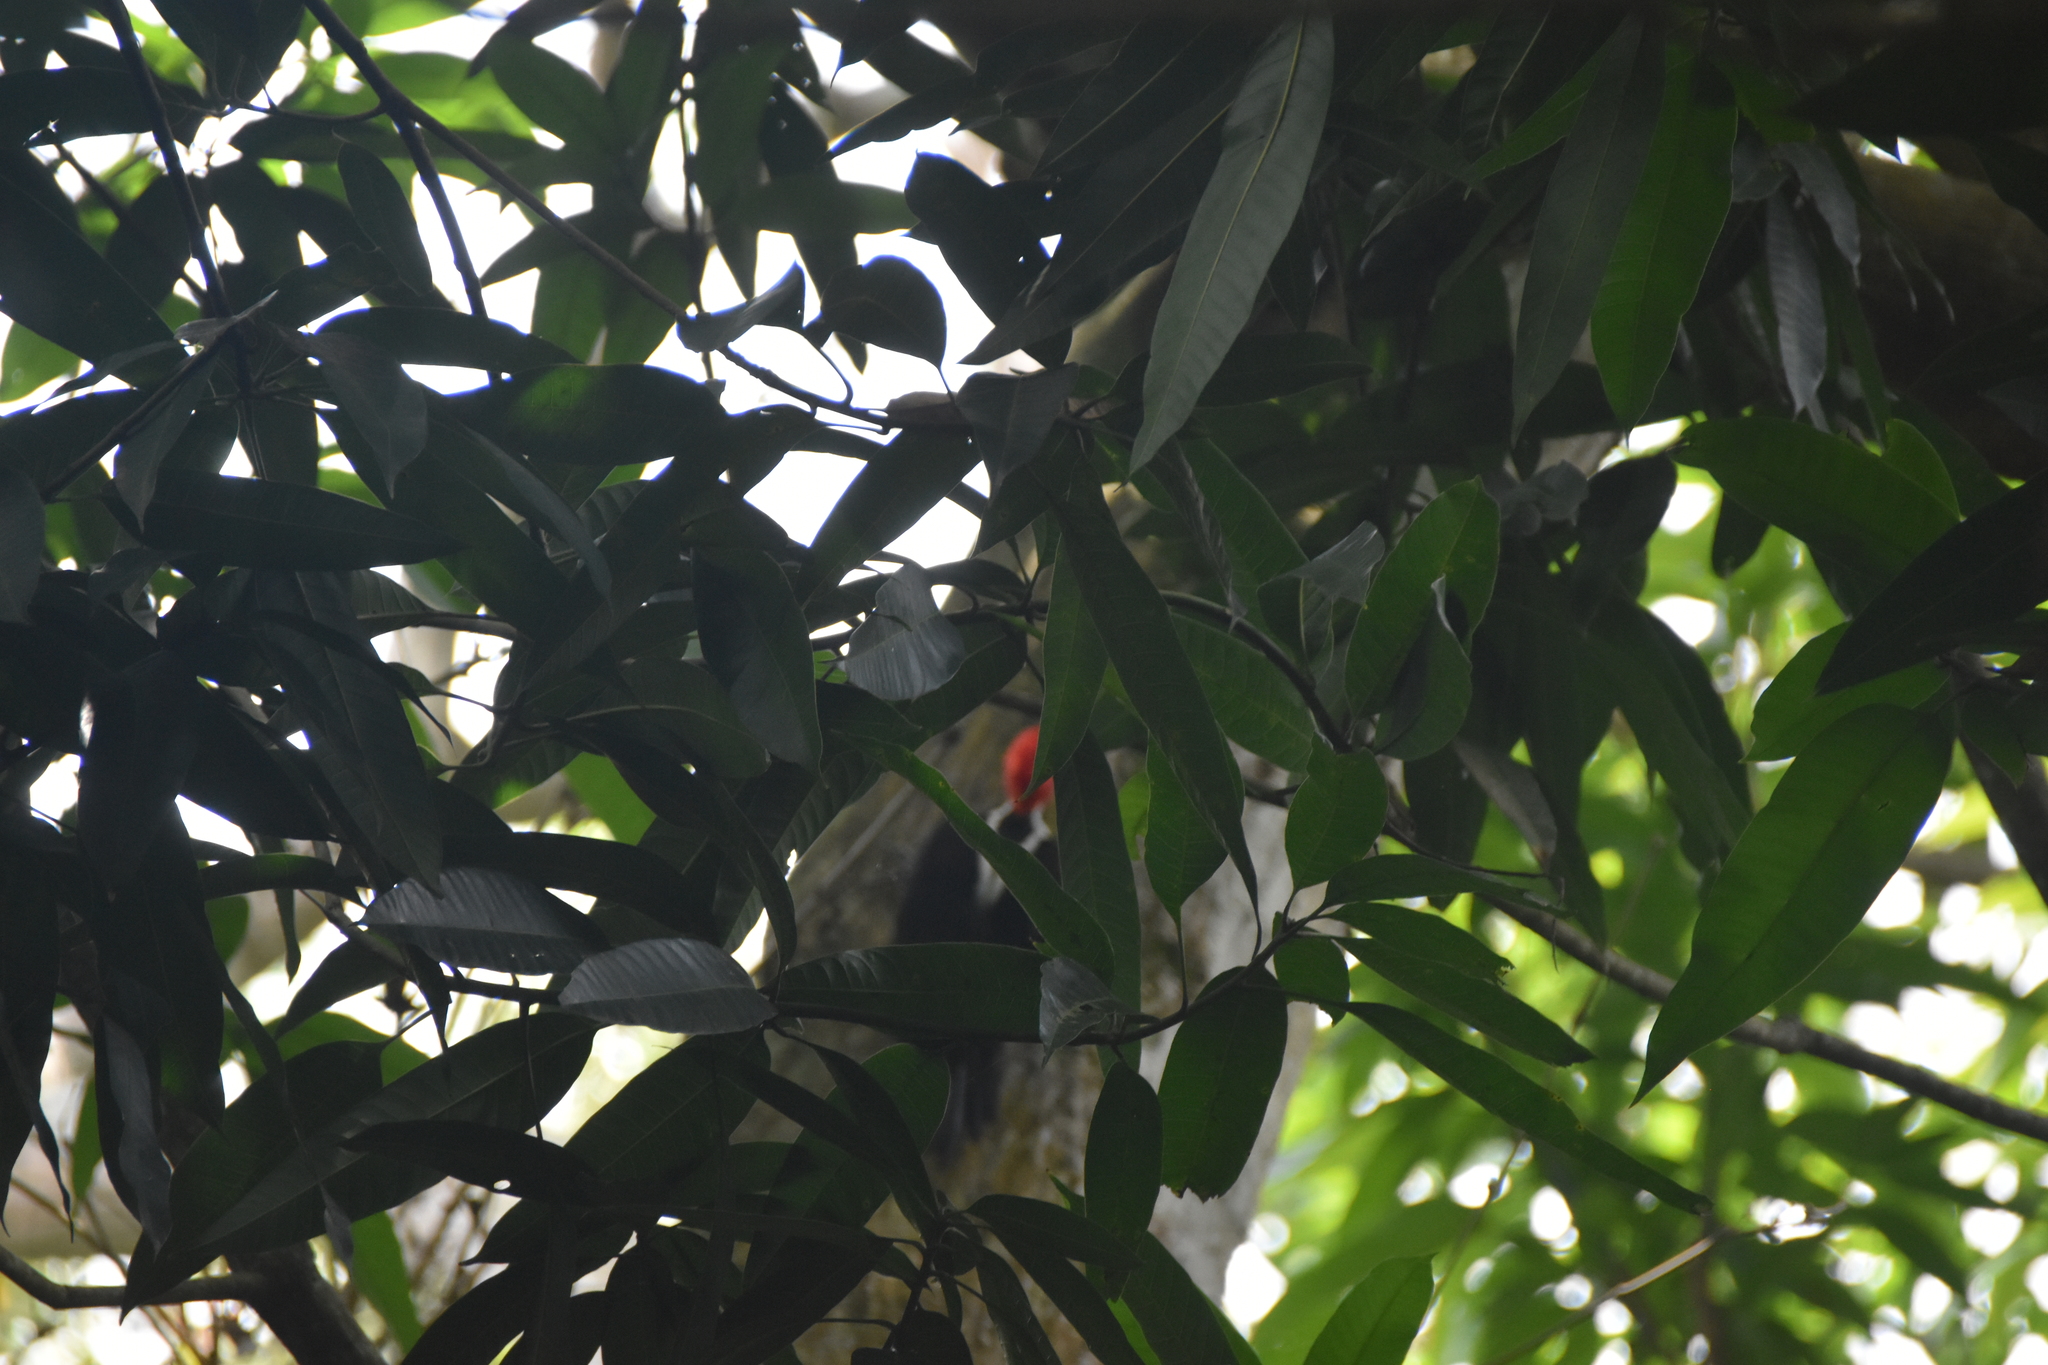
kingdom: Animalia
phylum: Chordata
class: Aves
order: Piciformes
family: Picidae
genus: Campephilus
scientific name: Campephilus melanoleucos
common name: Crimson-crested woodpecker
